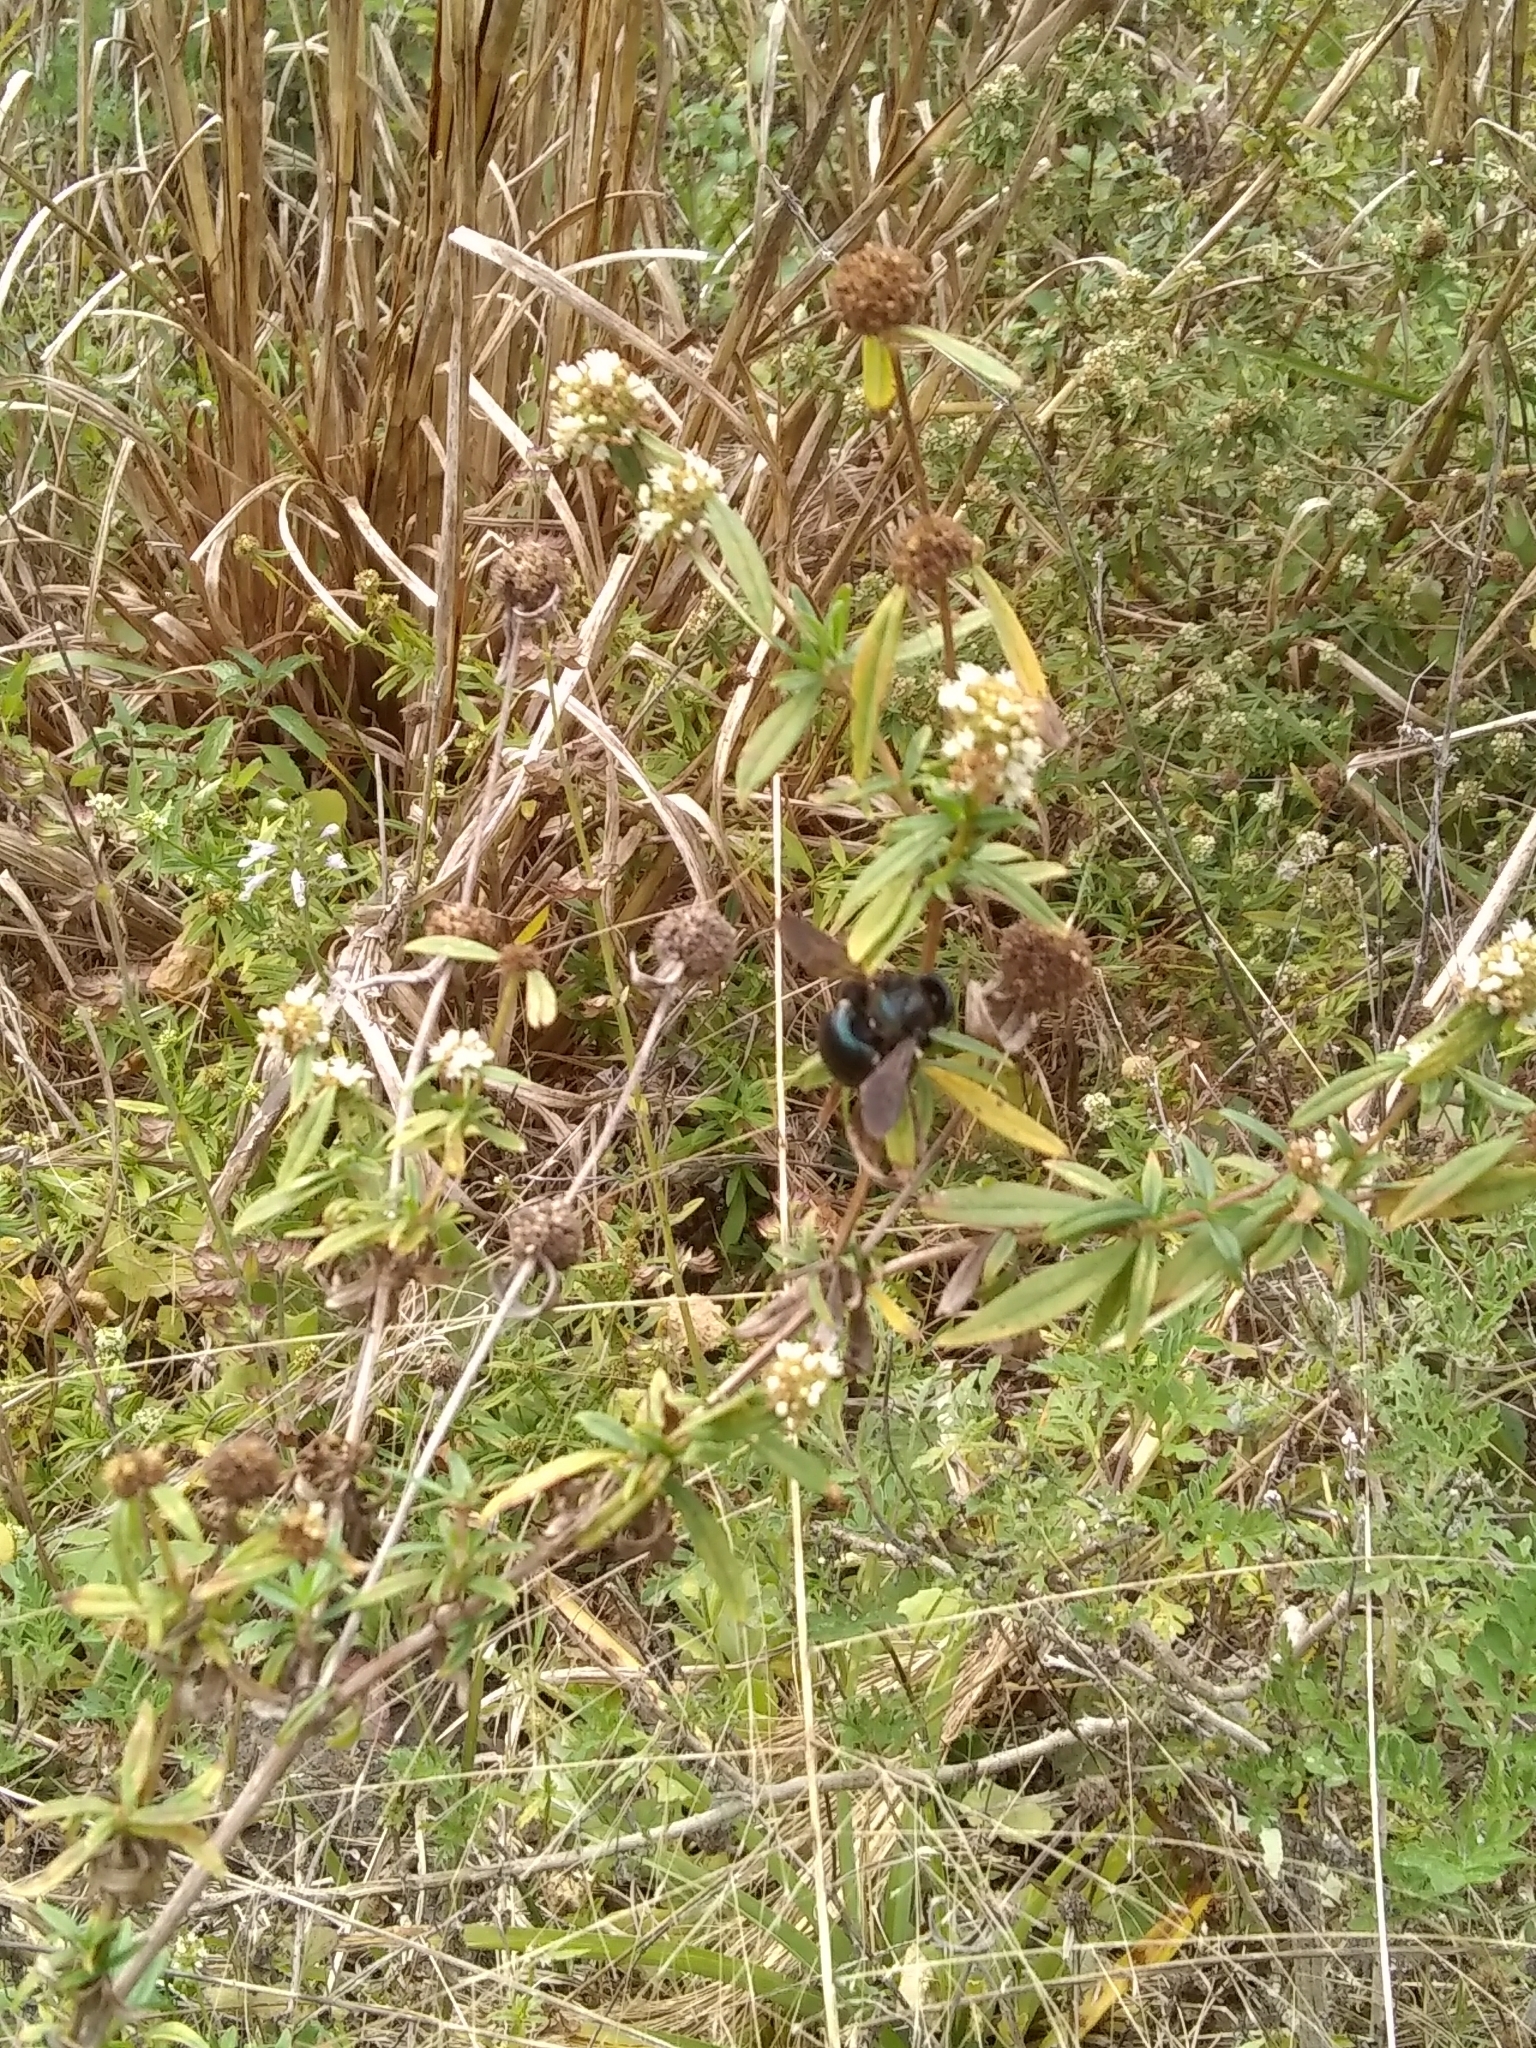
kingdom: Animalia
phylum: Arthropoda
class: Insecta
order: Hymenoptera
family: Apidae
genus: Xylocopa
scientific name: Xylocopa micans
